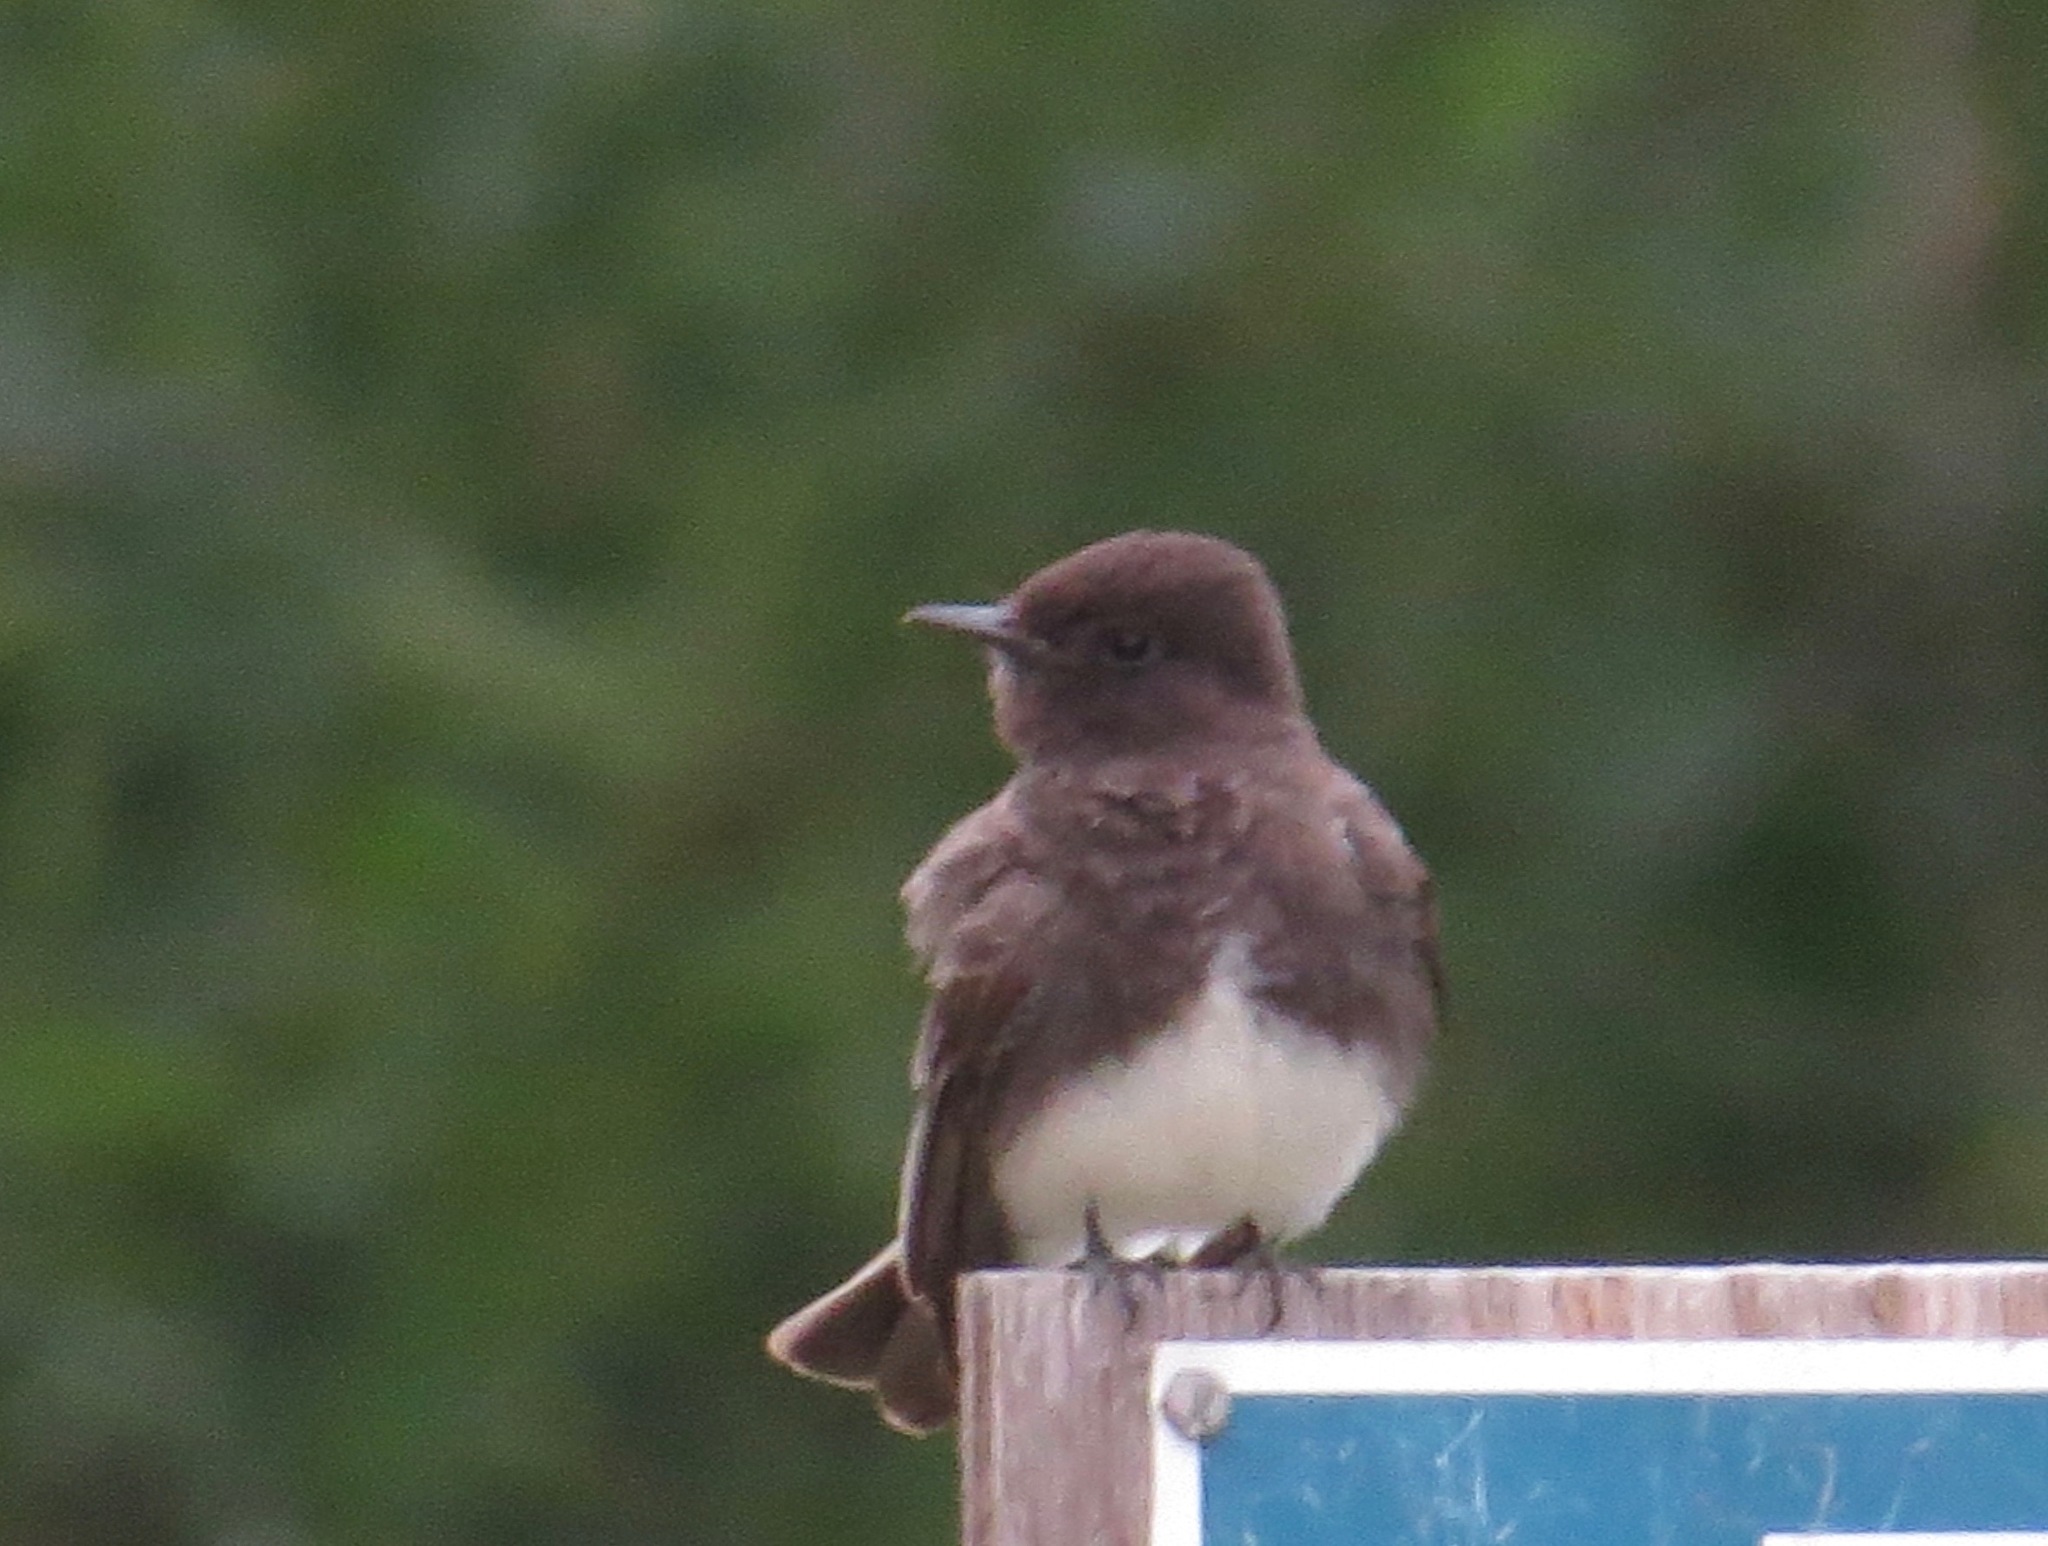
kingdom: Animalia
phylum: Chordata
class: Aves
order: Passeriformes
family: Tyrannidae
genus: Sayornis
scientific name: Sayornis nigricans
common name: Black phoebe
